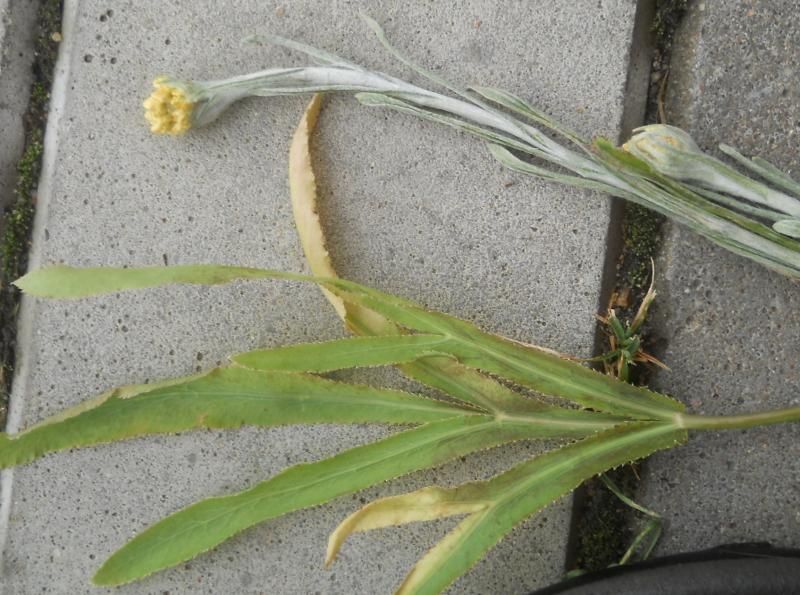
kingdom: Plantae
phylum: Tracheophyta
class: Magnoliopsida
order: Apiales
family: Apiaceae
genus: Falcaria
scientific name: Falcaria vulgaris
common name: Longleaf
